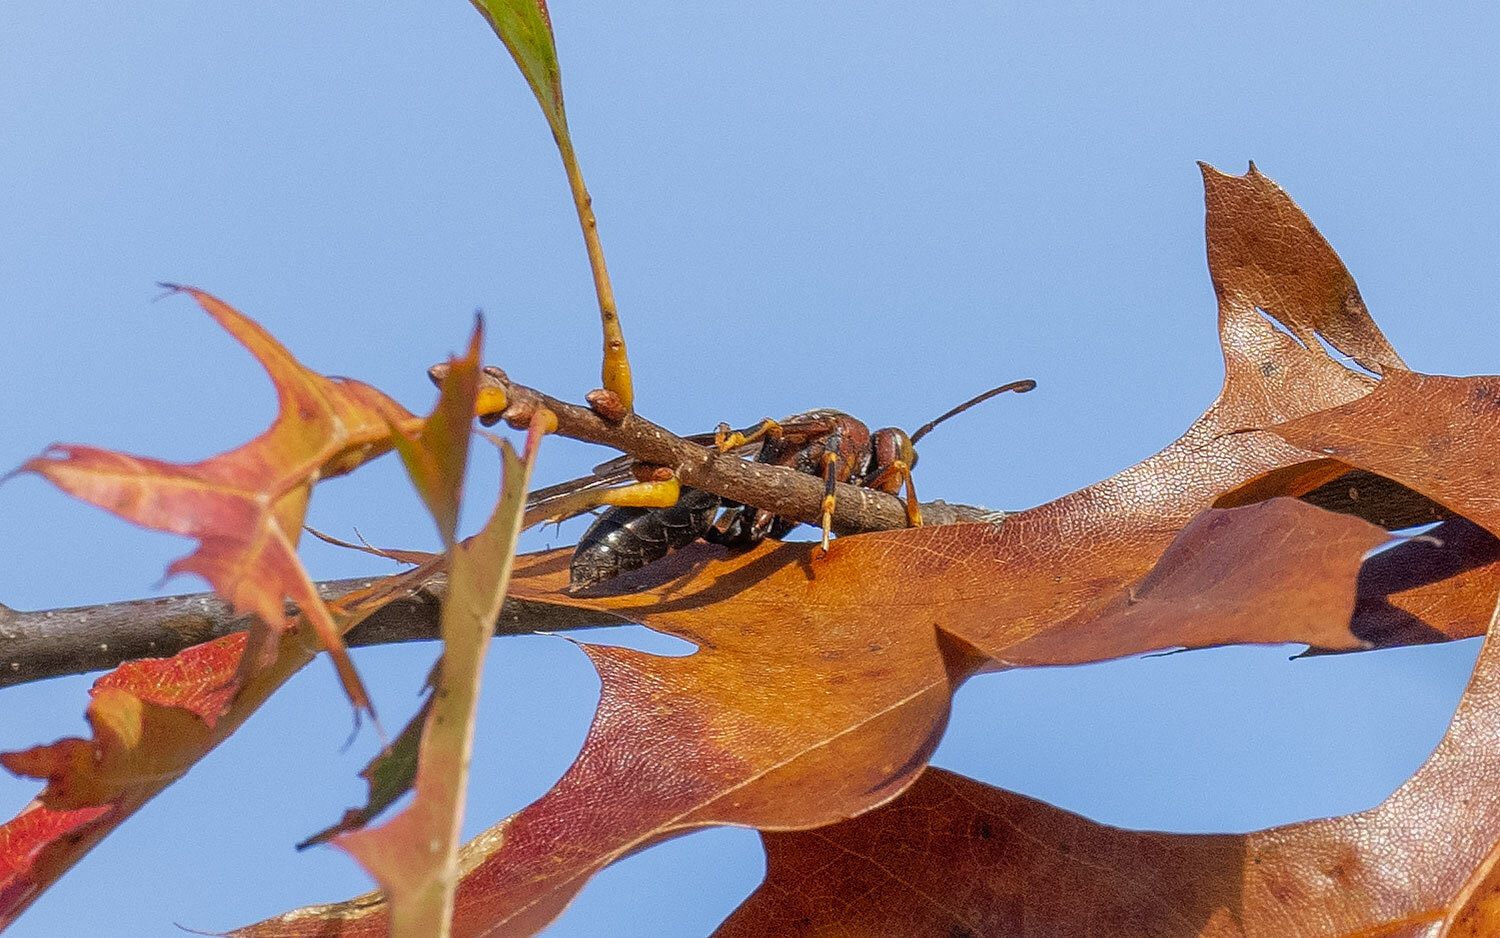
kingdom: Animalia
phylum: Arthropoda
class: Insecta
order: Hymenoptera
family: Eumenidae
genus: Polistes
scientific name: Polistes metricus
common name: Metric paper wasp
